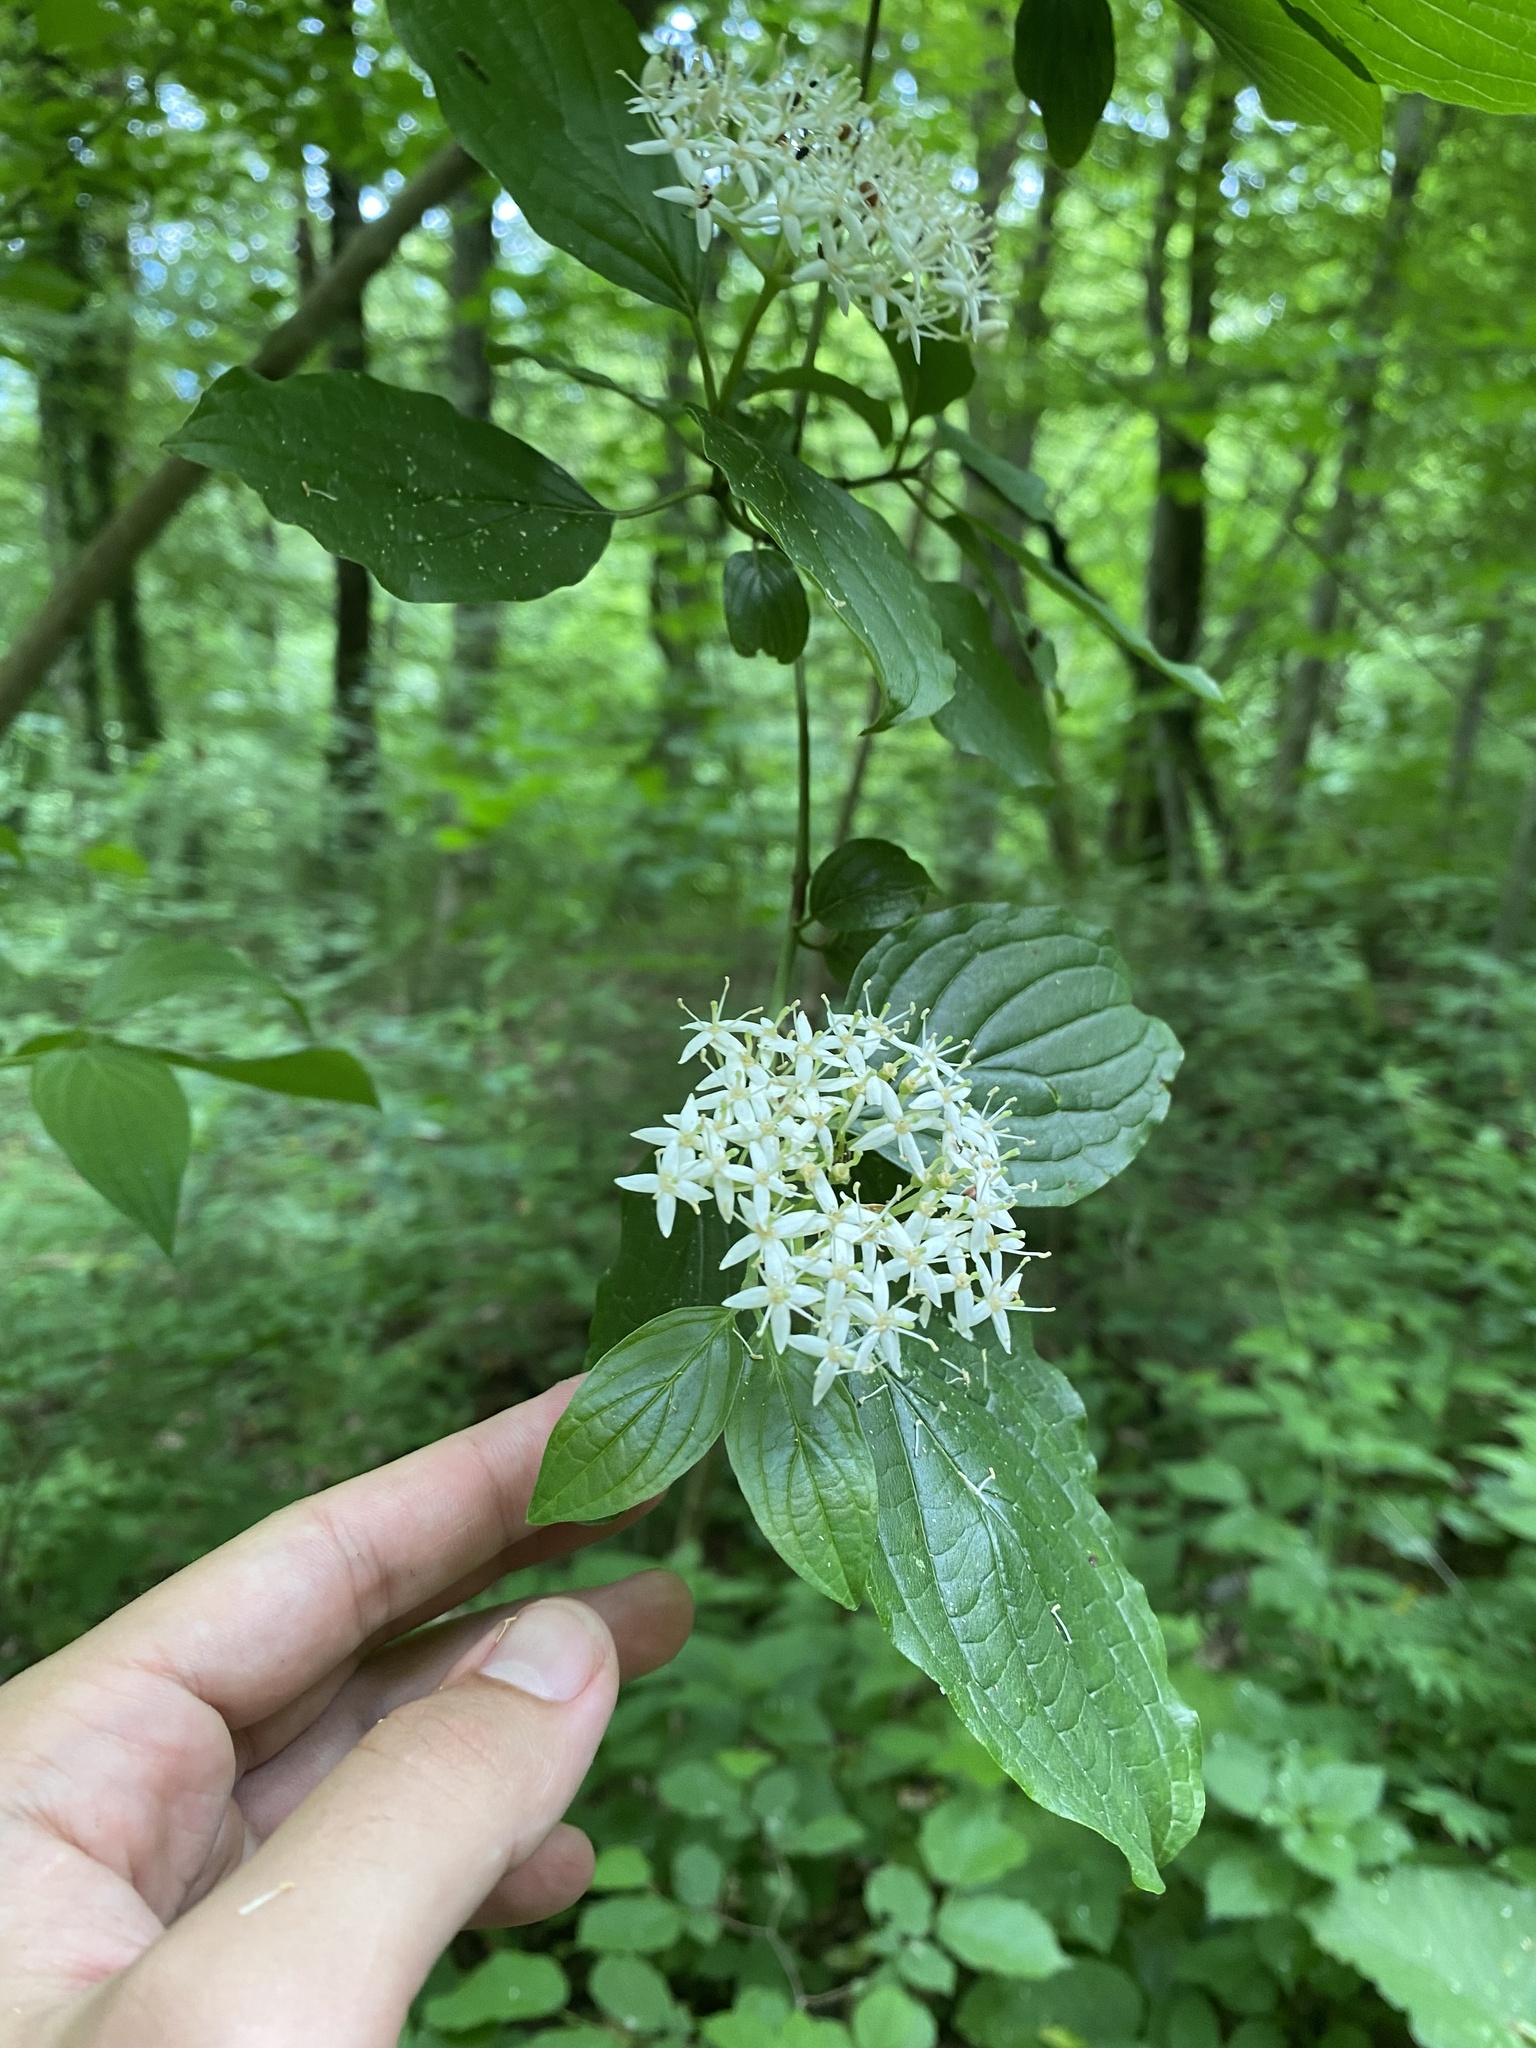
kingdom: Plantae
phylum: Tracheophyta
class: Magnoliopsida
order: Cornales
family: Cornaceae
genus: Cornus
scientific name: Cornus sanguinea
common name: Dogwood
